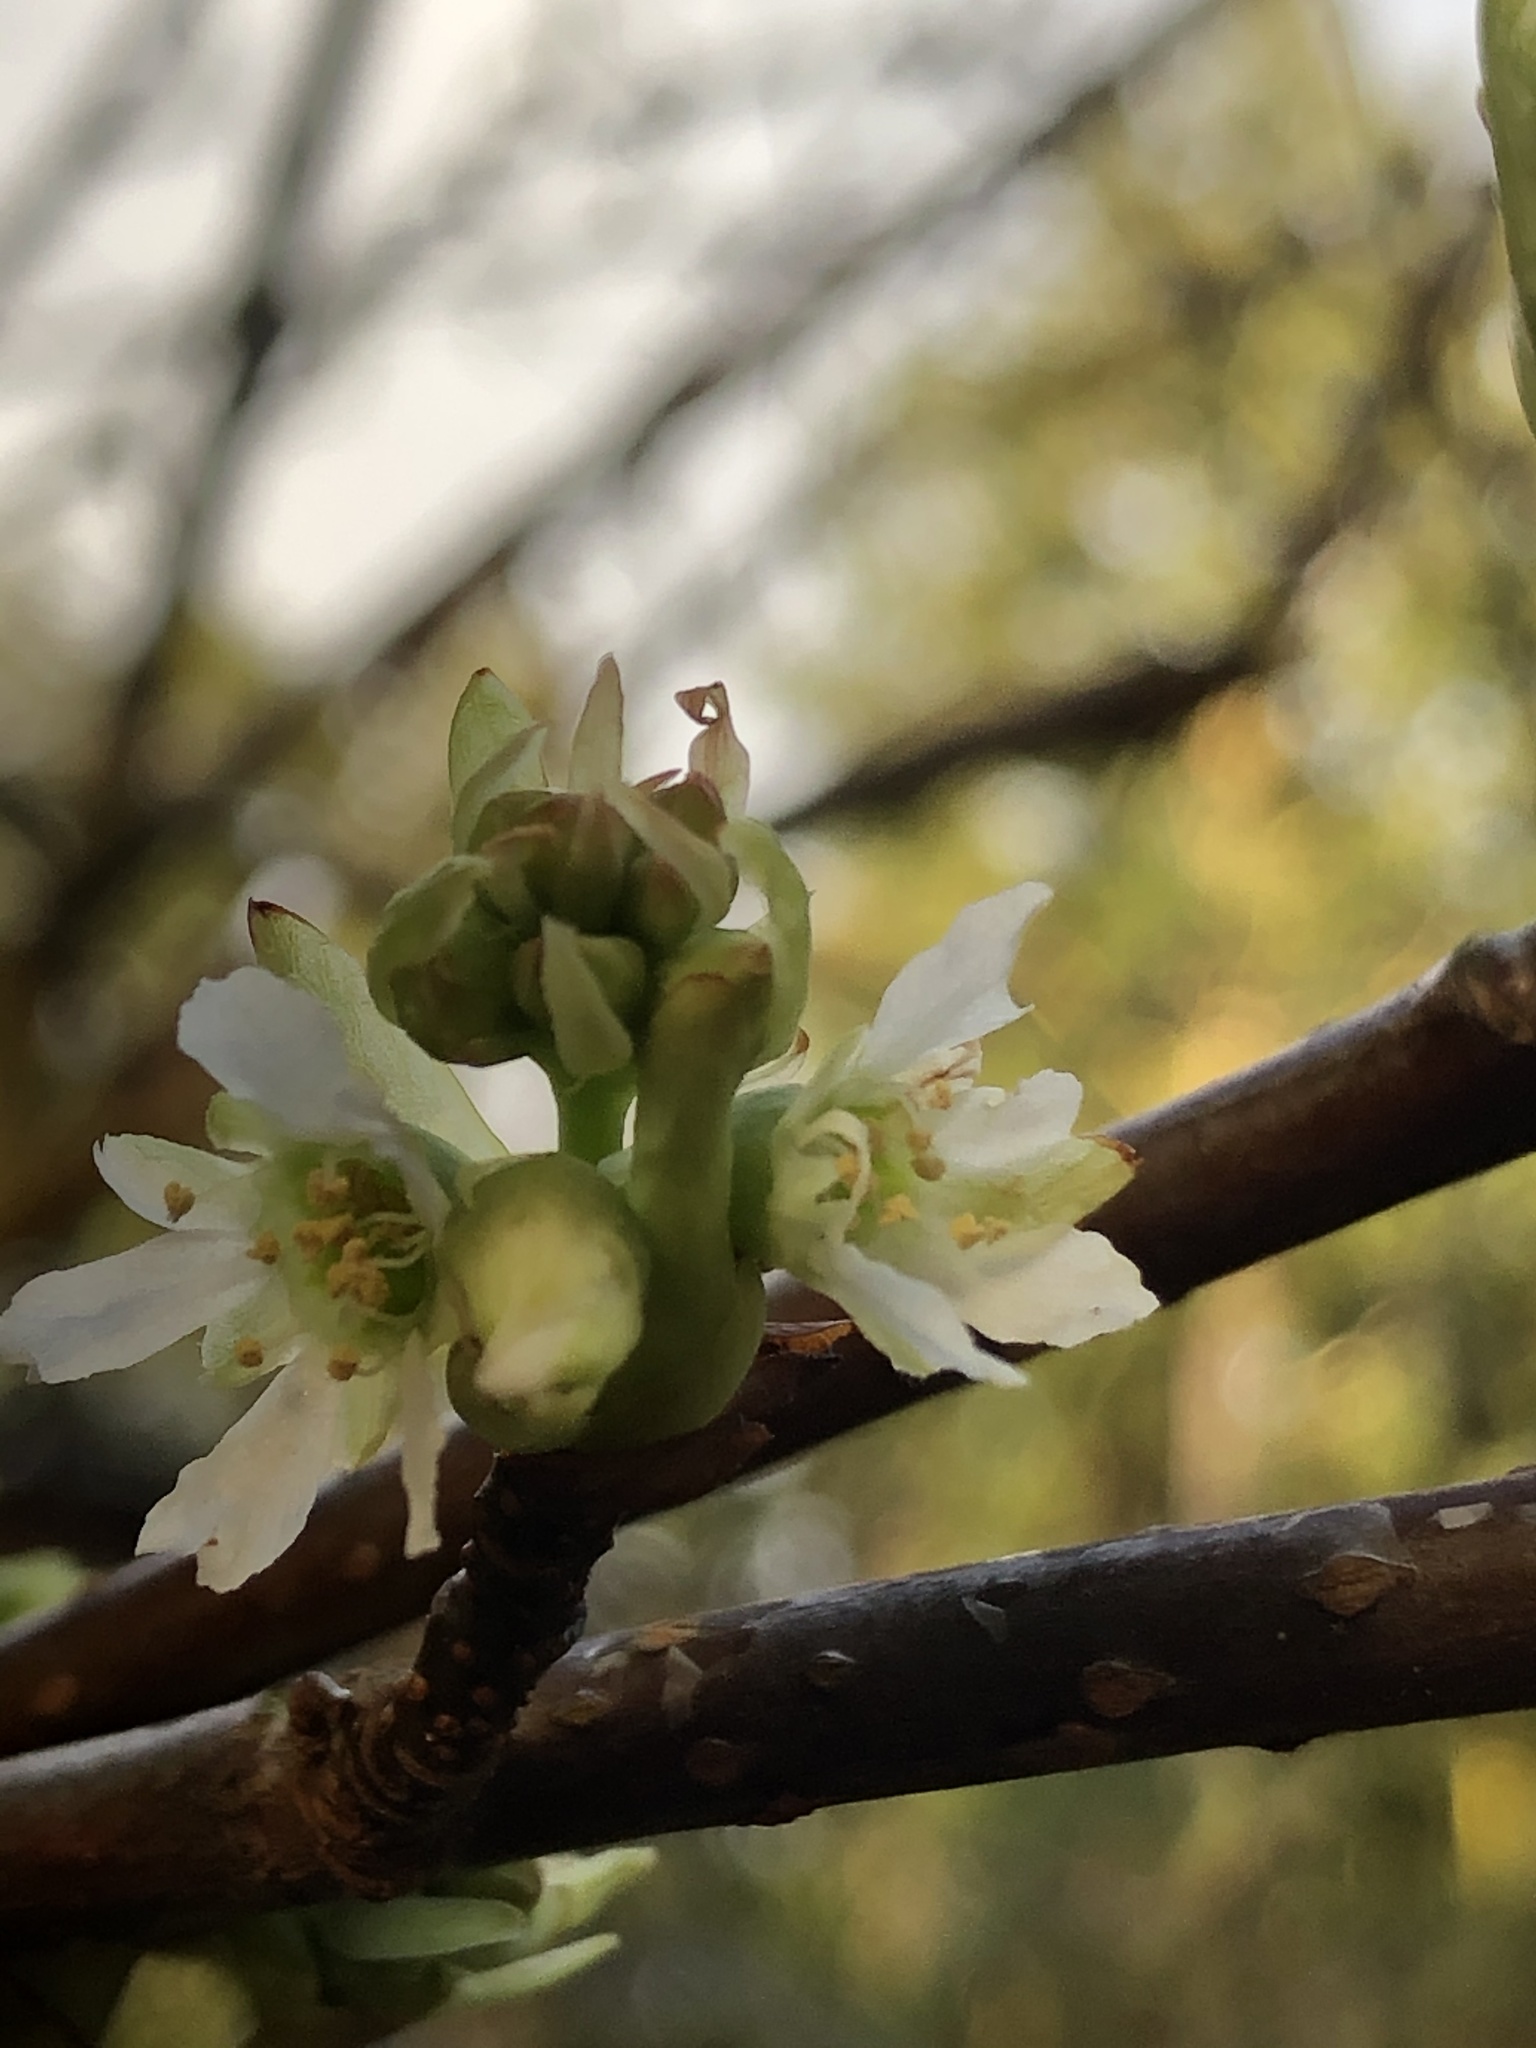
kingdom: Plantae
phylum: Tracheophyta
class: Magnoliopsida
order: Rosales
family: Rosaceae
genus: Oemleria
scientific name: Oemleria cerasiformis
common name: Osoberry
